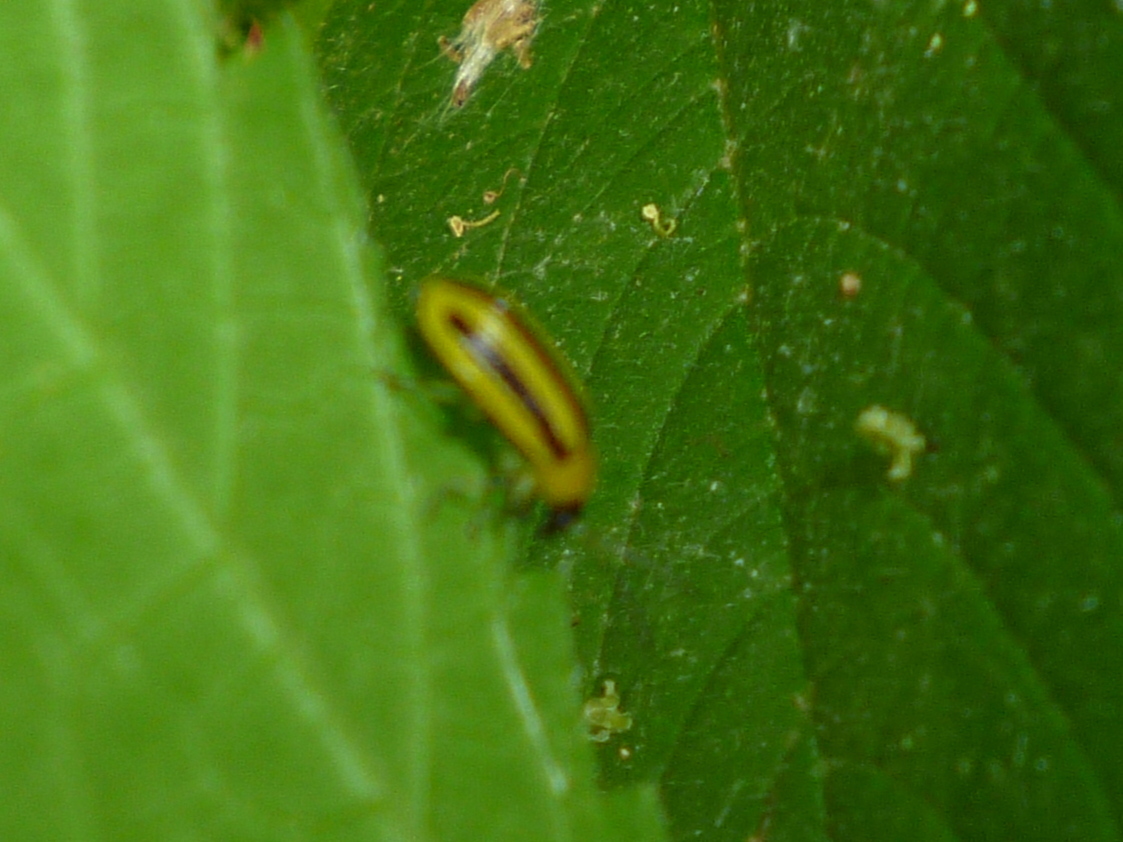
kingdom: Animalia
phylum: Arthropoda
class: Insecta
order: Coleoptera
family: Chrysomelidae
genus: Acalymma
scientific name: Acalymma vittatum
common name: Striped cucumber beetle
